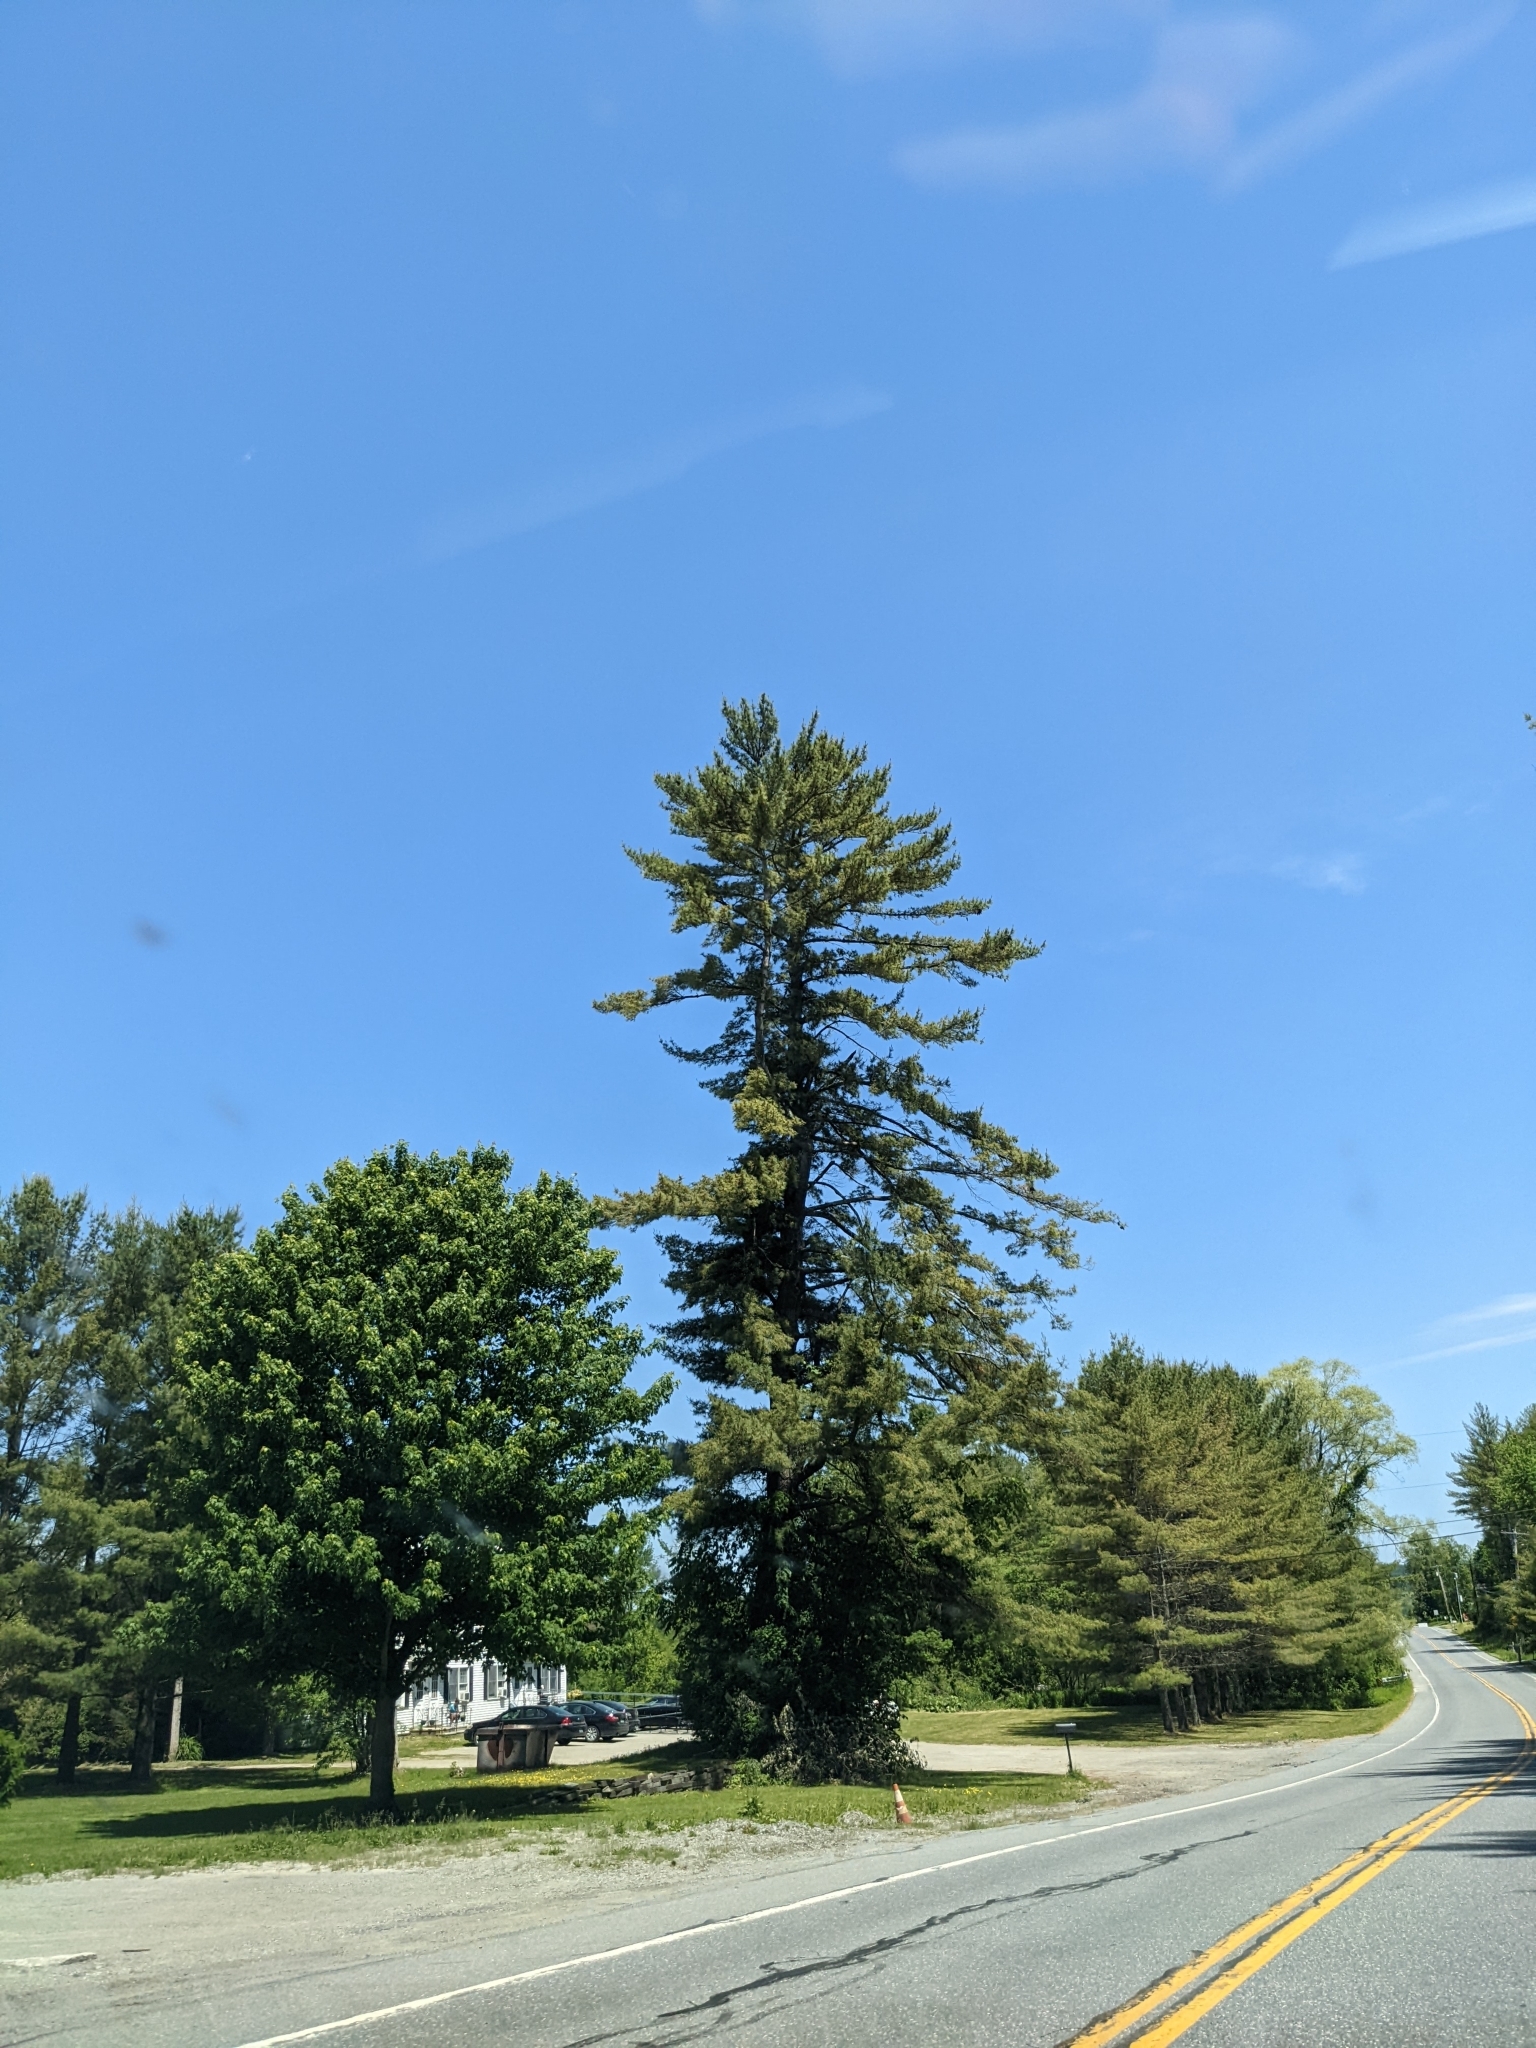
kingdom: Plantae
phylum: Tracheophyta
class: Pinopsida
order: Pinales
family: Pinaceae
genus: Pinus
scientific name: Pinus strobus
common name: Weymouth pine
